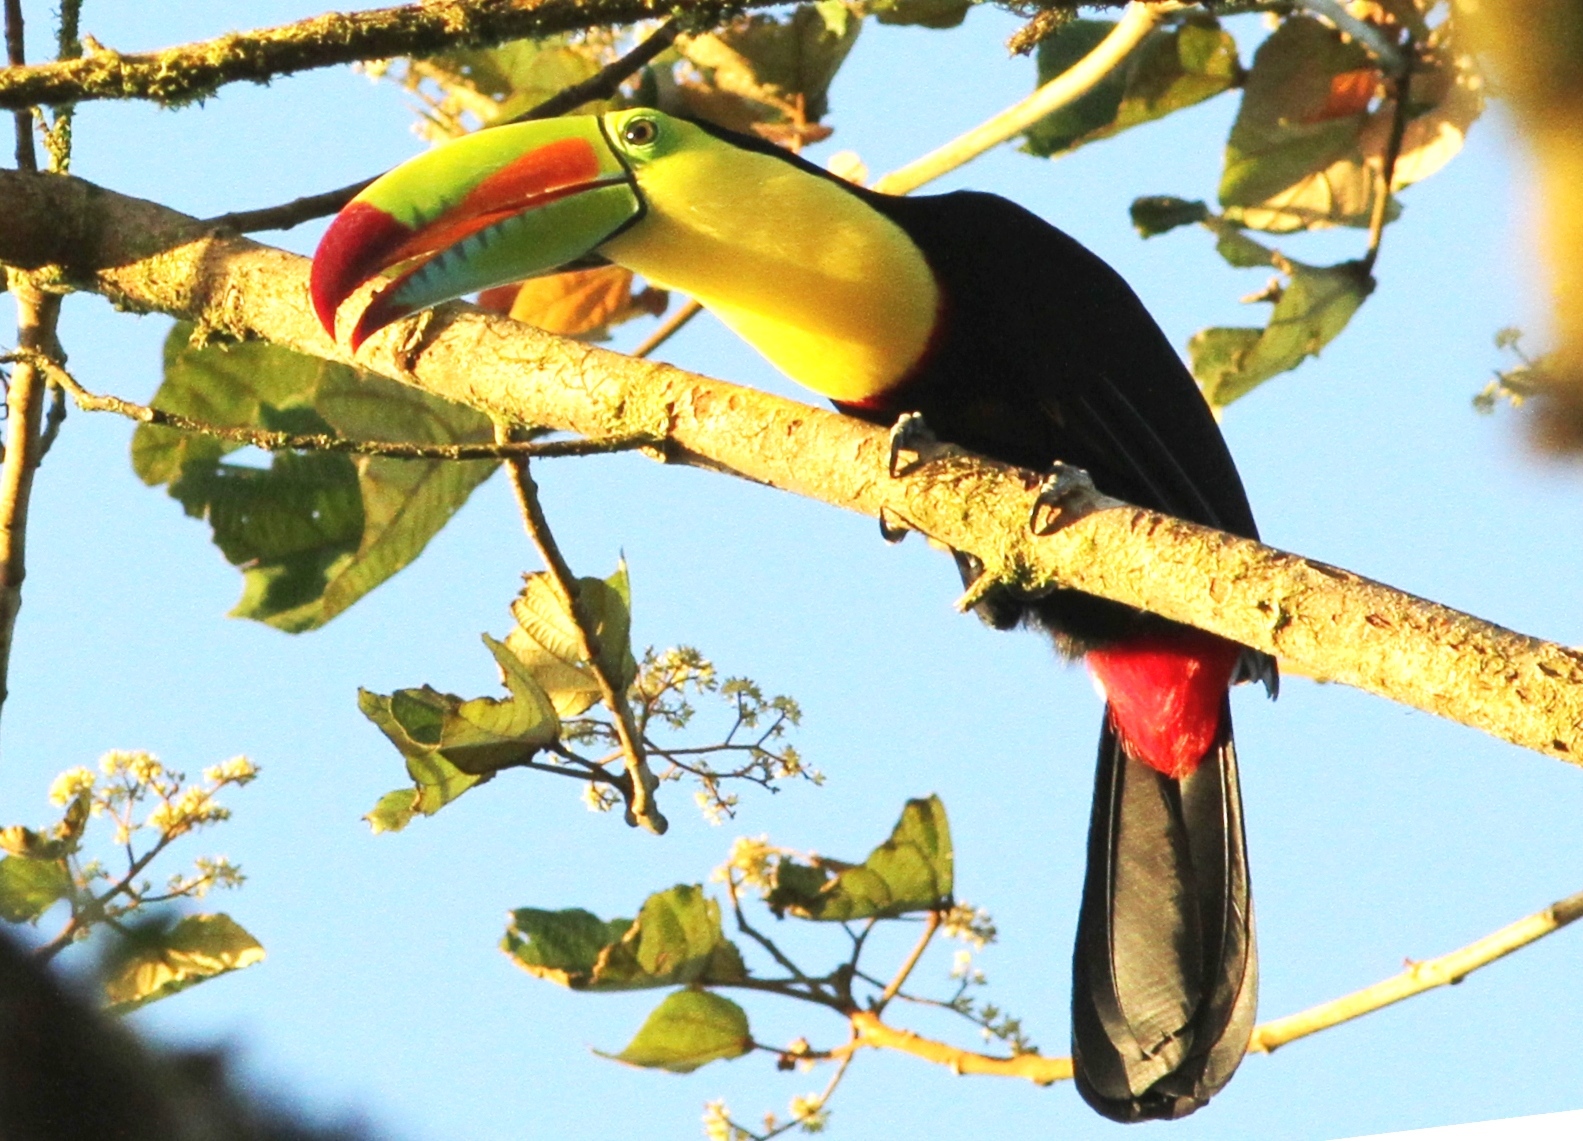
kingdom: Animalia
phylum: Chordata
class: Aves
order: Piciformes
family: Ramphastidae
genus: Ramphastos
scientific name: Ramphastos sulfuratus
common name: Keel-billed toucan
